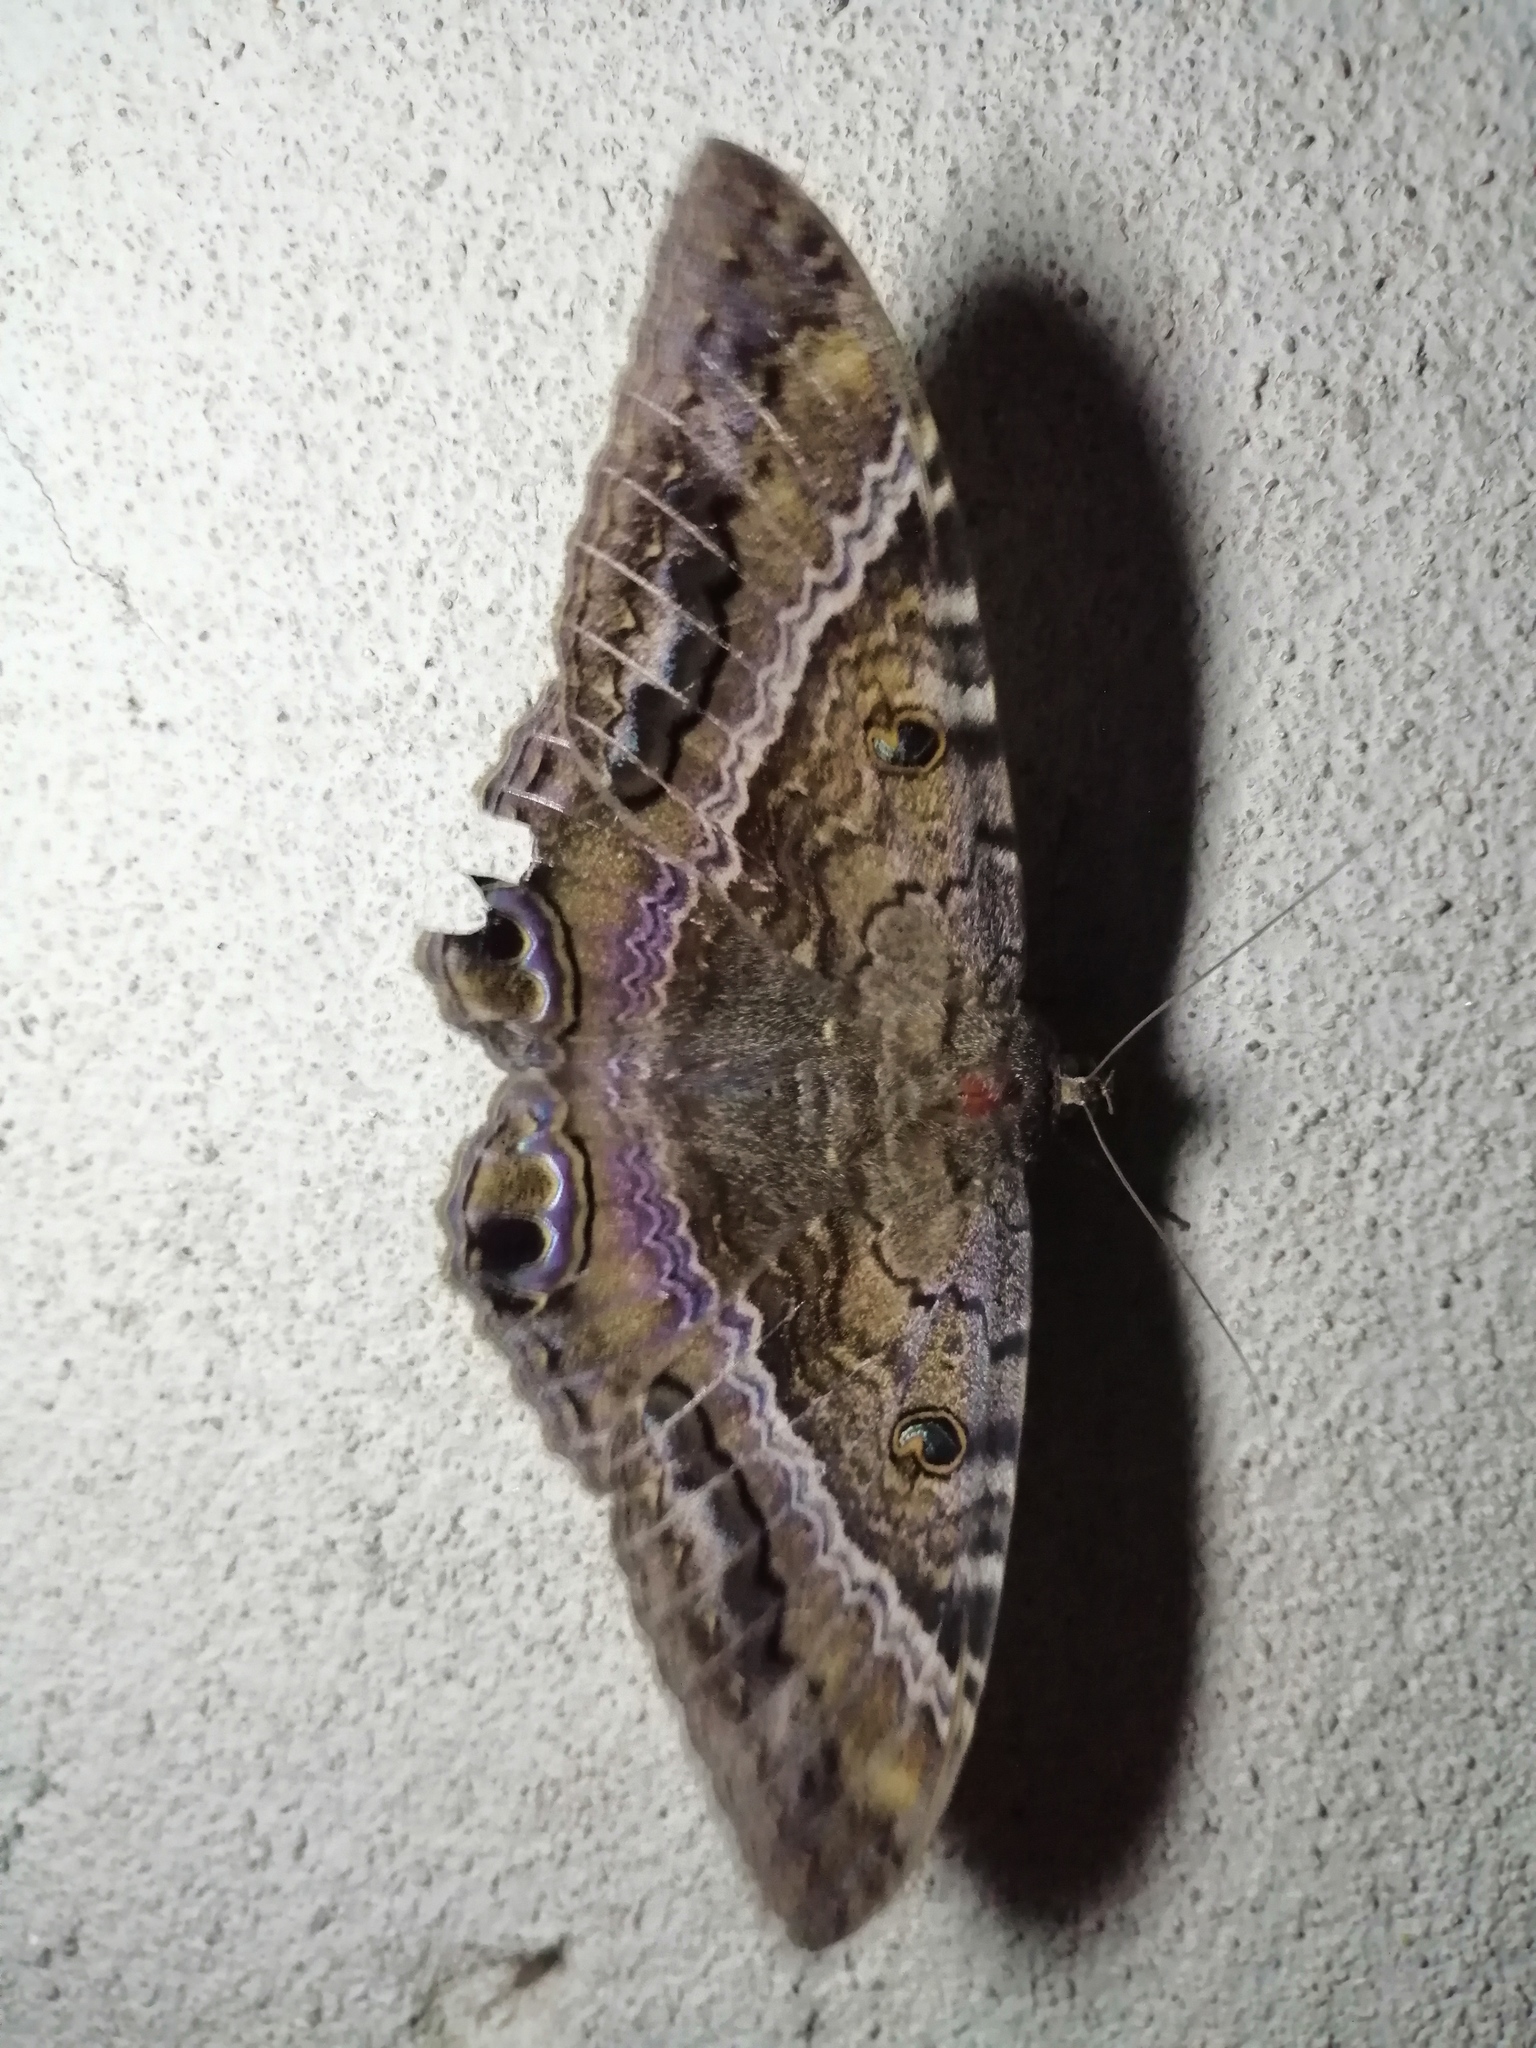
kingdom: Animalia
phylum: Arthropoda
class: Insecta
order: Lepidoptera
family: Erebidae
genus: Ascalapha
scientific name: Ascalapha odorata
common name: Black witch
